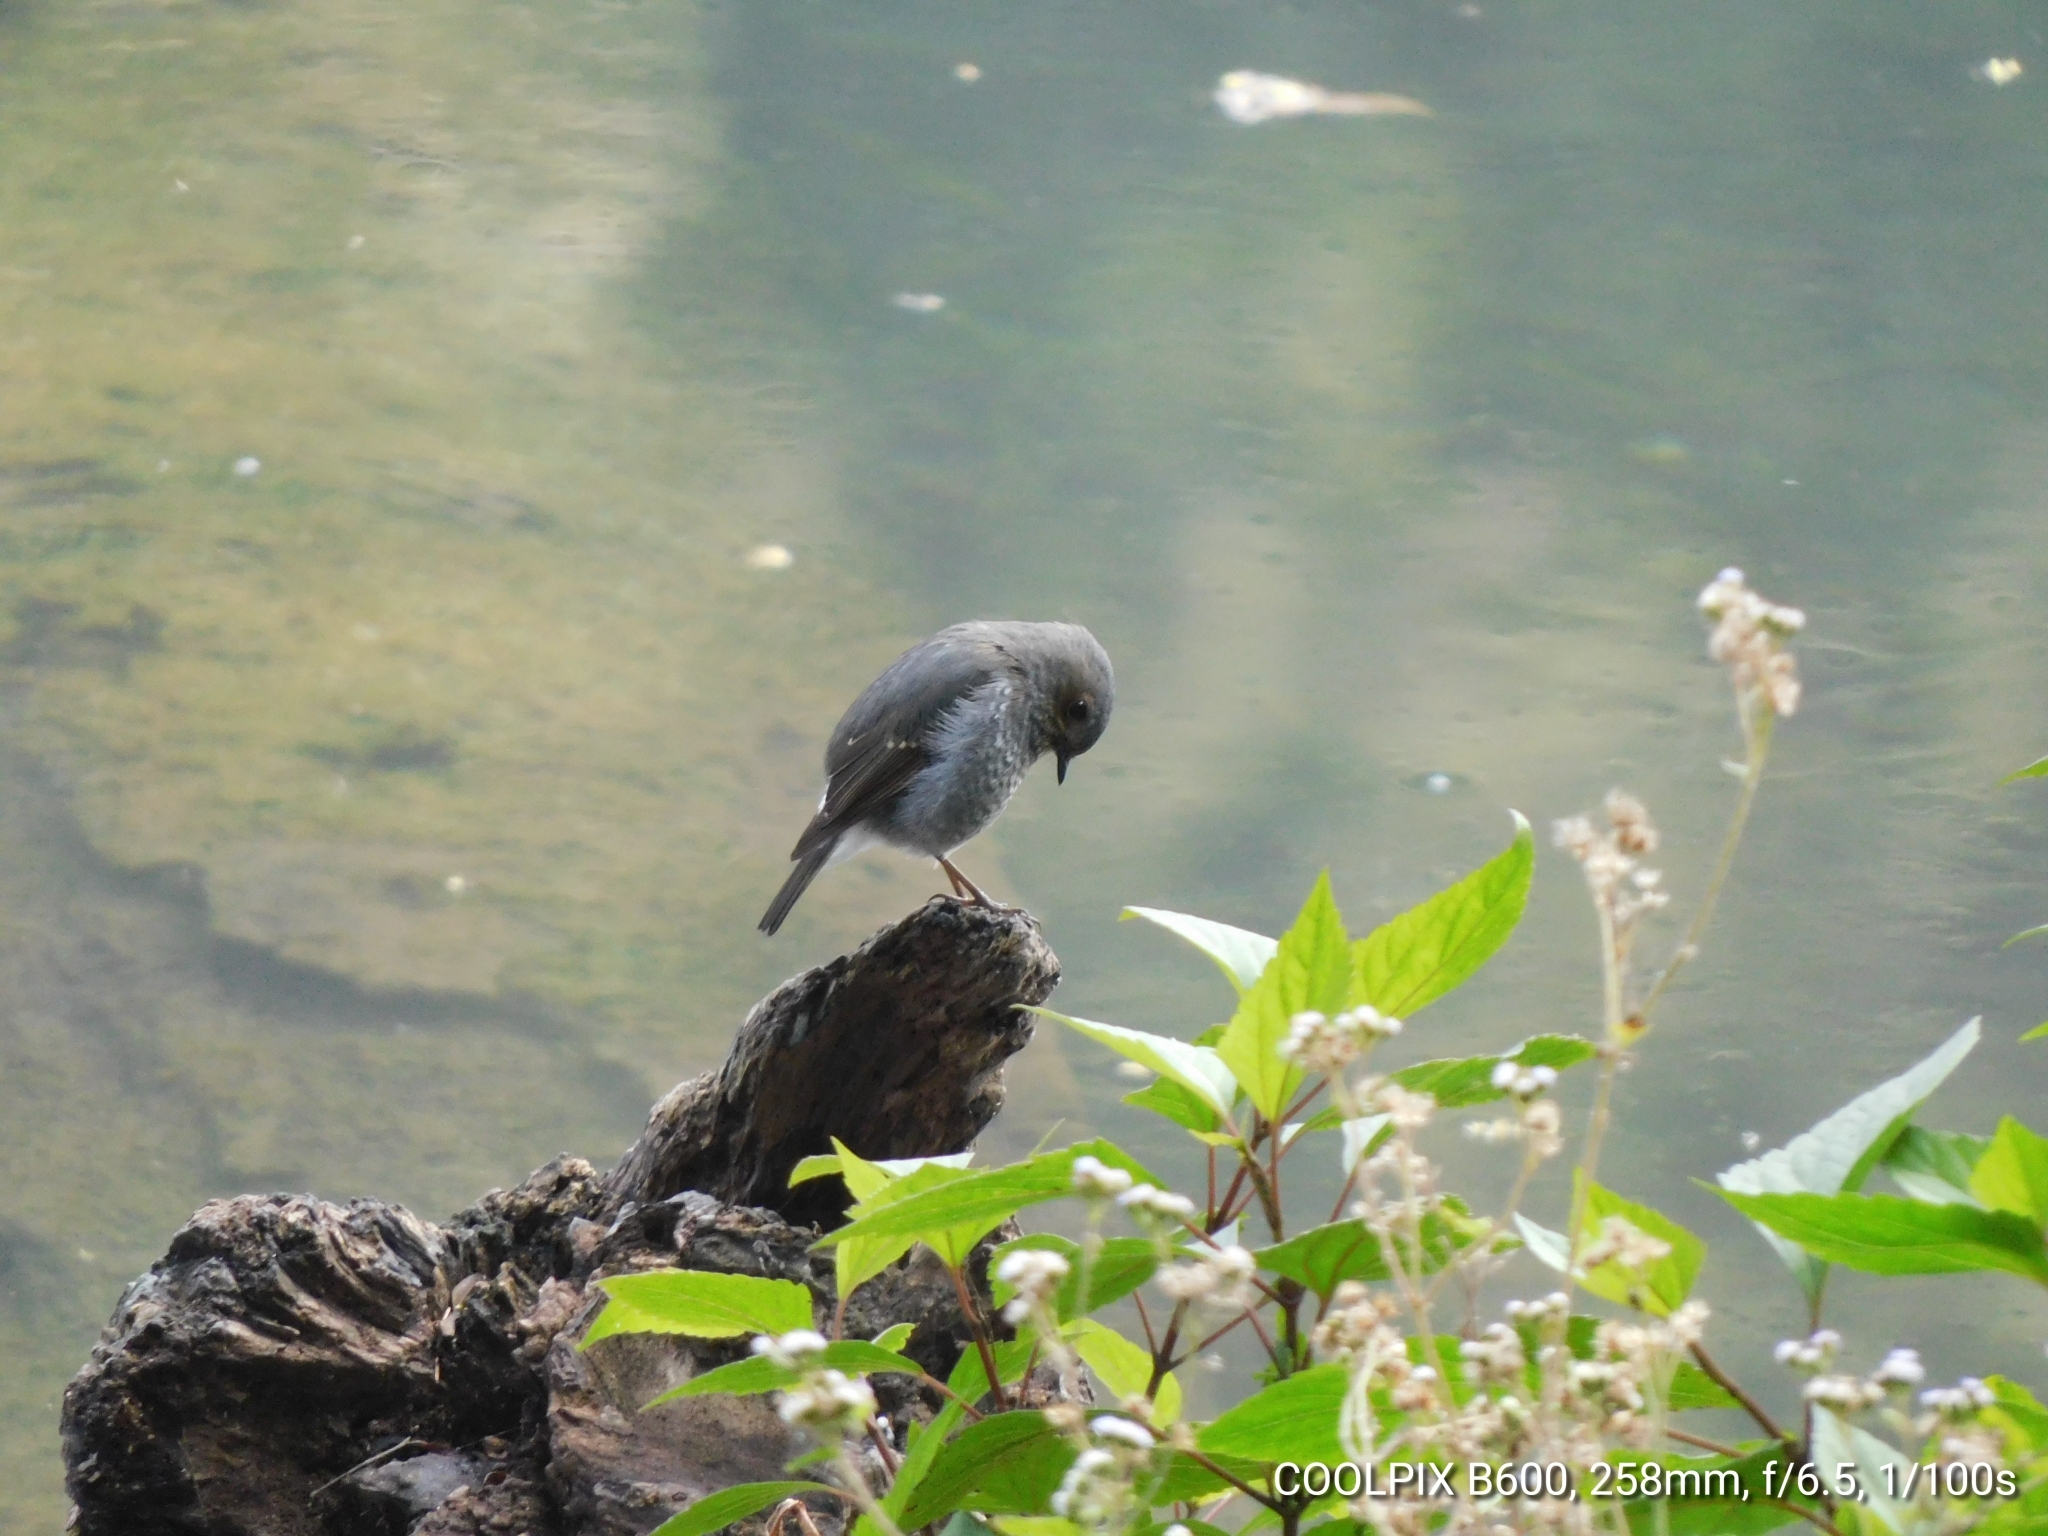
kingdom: Animalia
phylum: Chordata
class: Aves
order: Passeriformes
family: Muscicapidae
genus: Phoenicurus
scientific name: Phoenicurus fuliginosus
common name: Plumbeous water redstart
